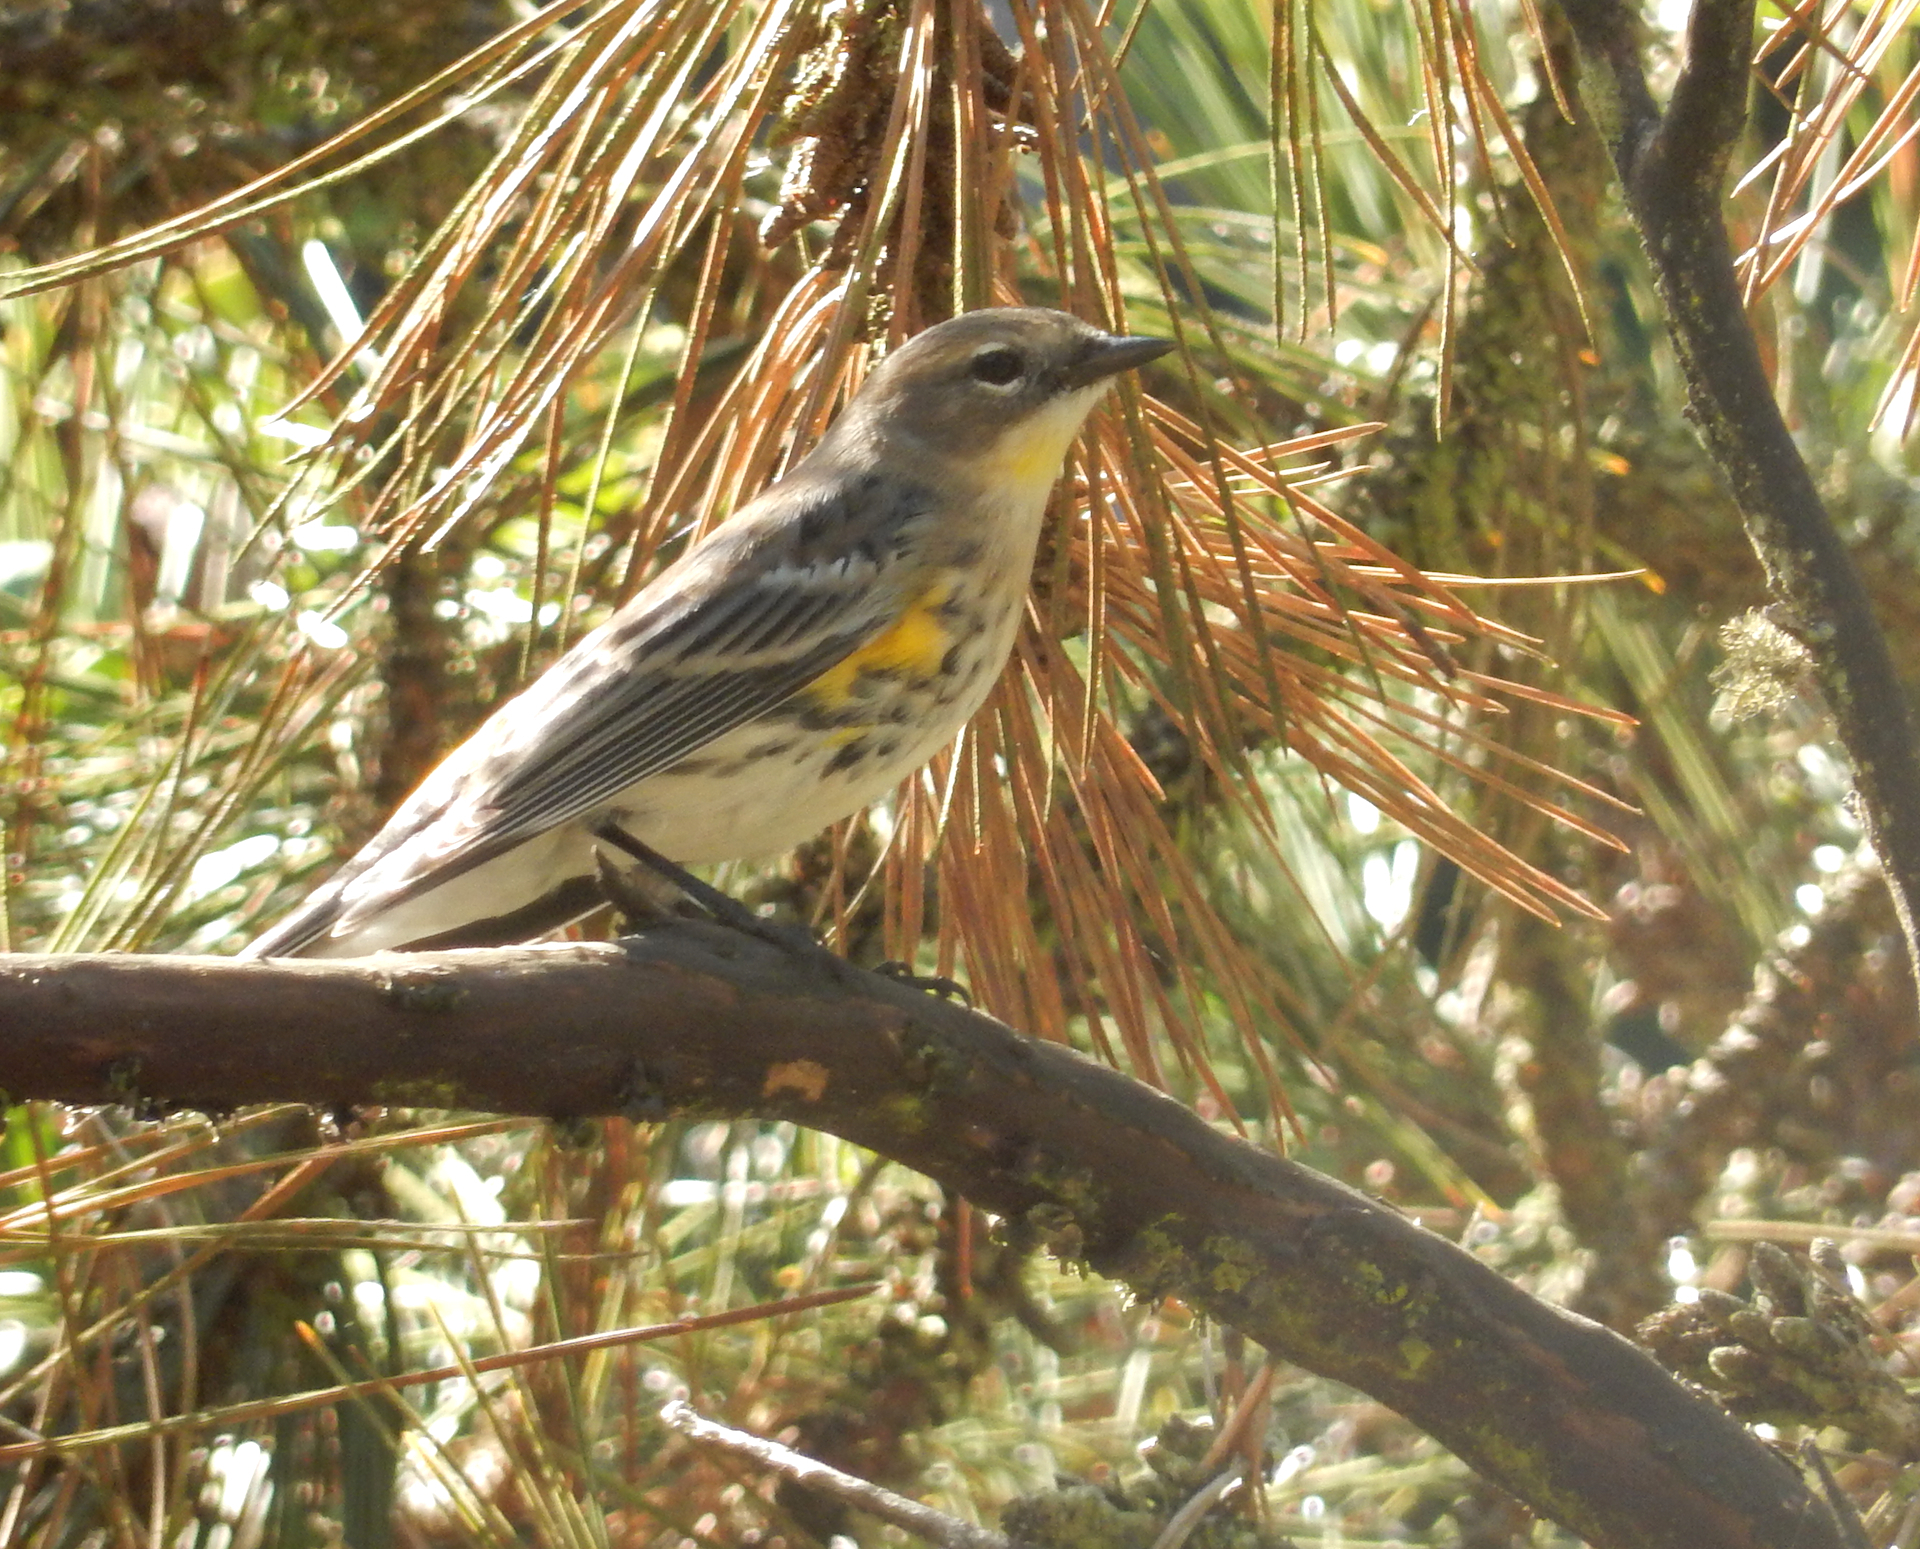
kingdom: Animalia
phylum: Chordata
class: Aves
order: Passeriformes
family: Parulidae
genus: Setophaga
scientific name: Setophaga
